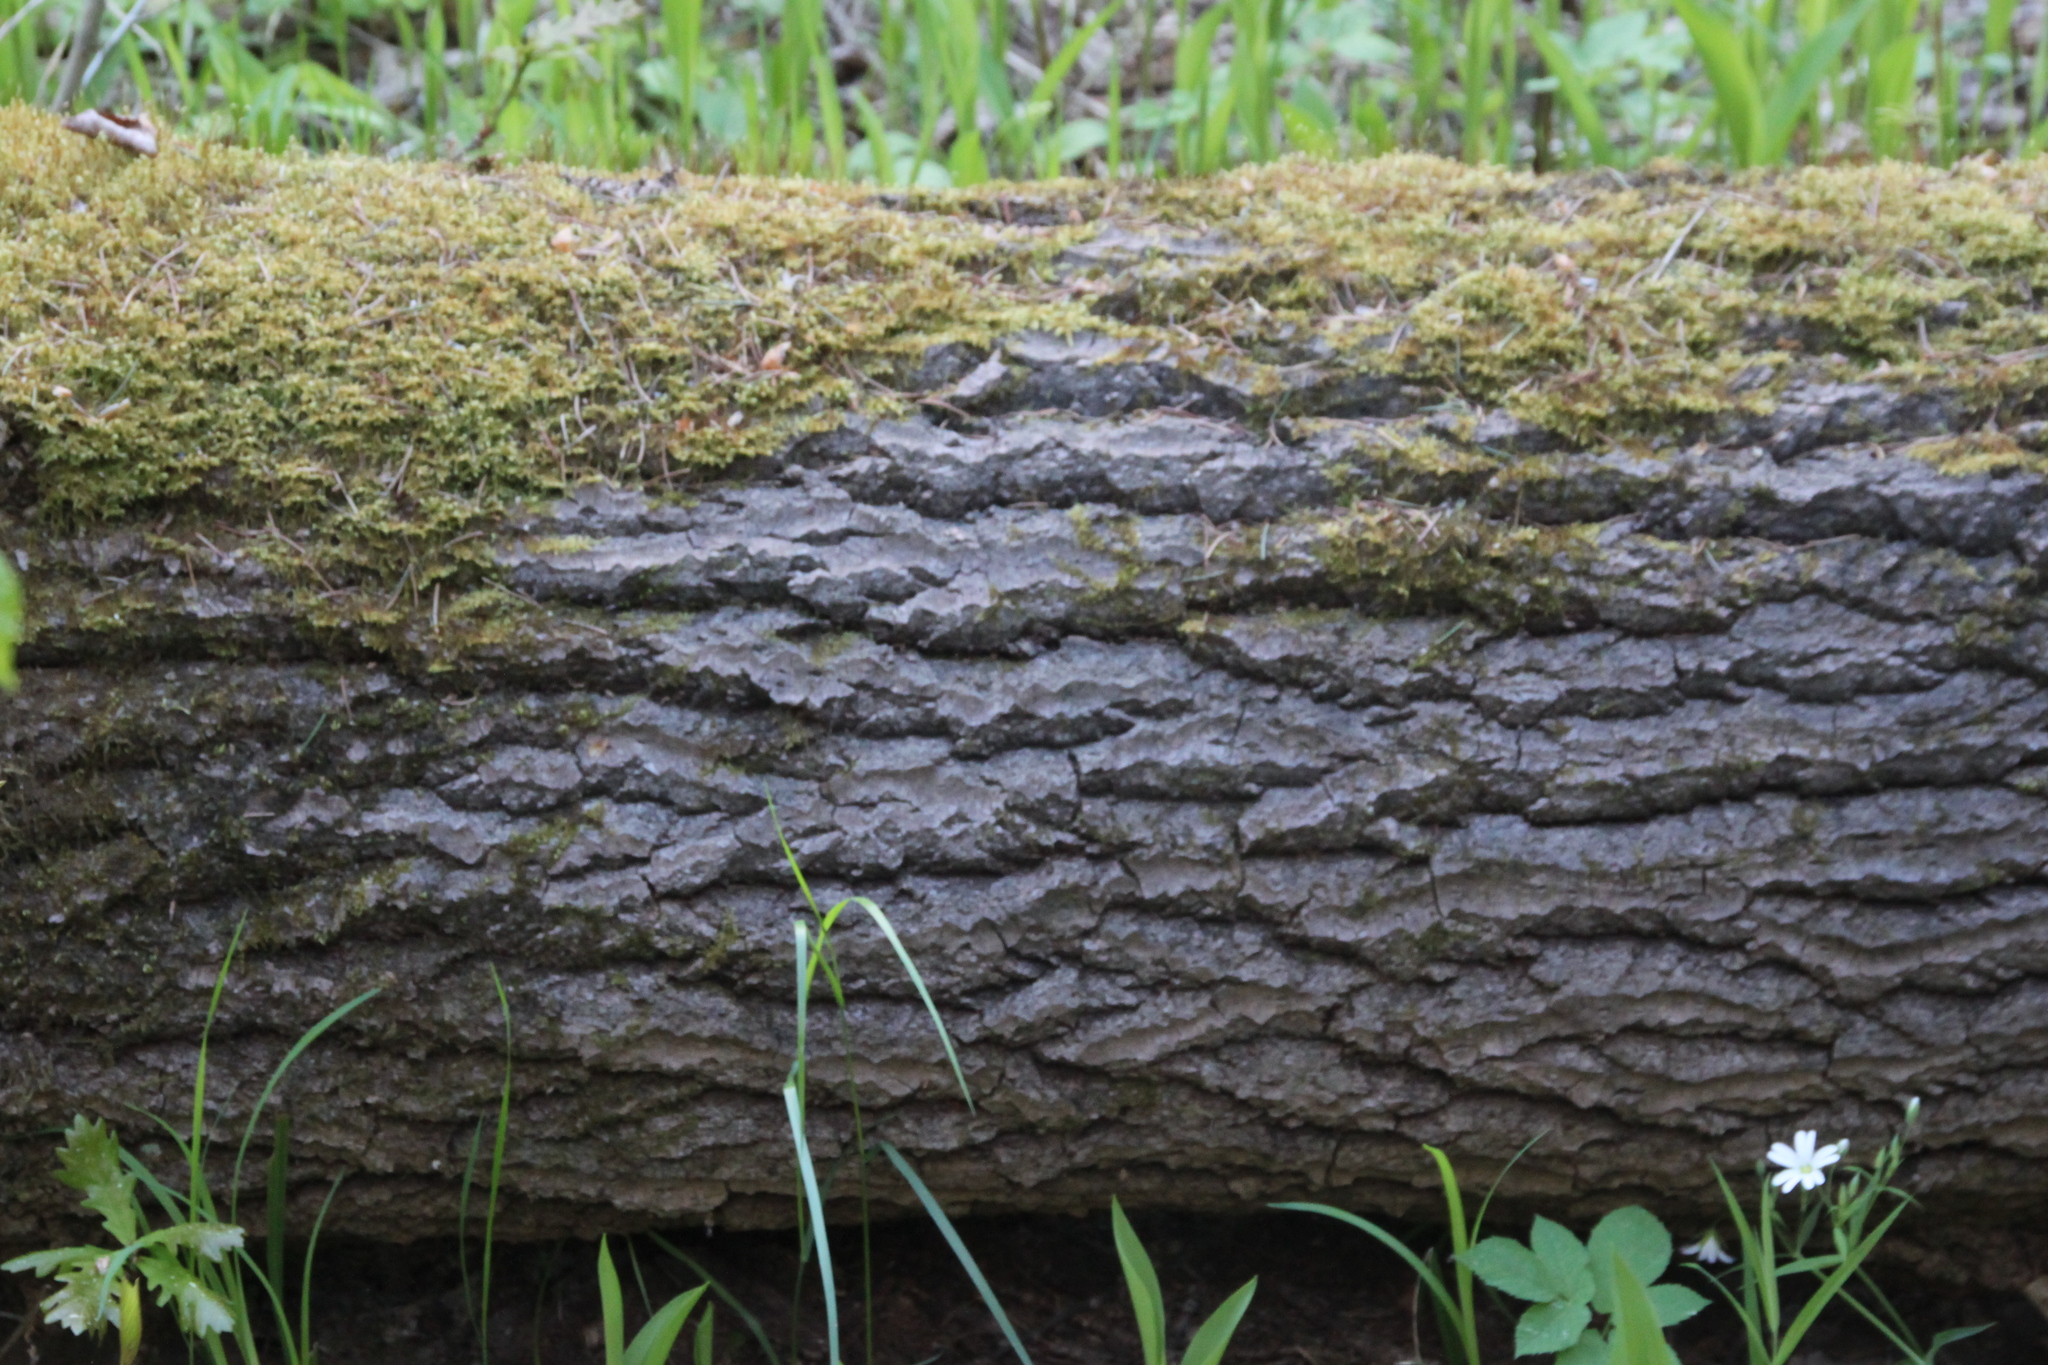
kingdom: Plantae
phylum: Tracheophyta
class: Magnoliopsida
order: Malpighiales
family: Salicaceae
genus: Populus
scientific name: Populus tremula
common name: European aspen
